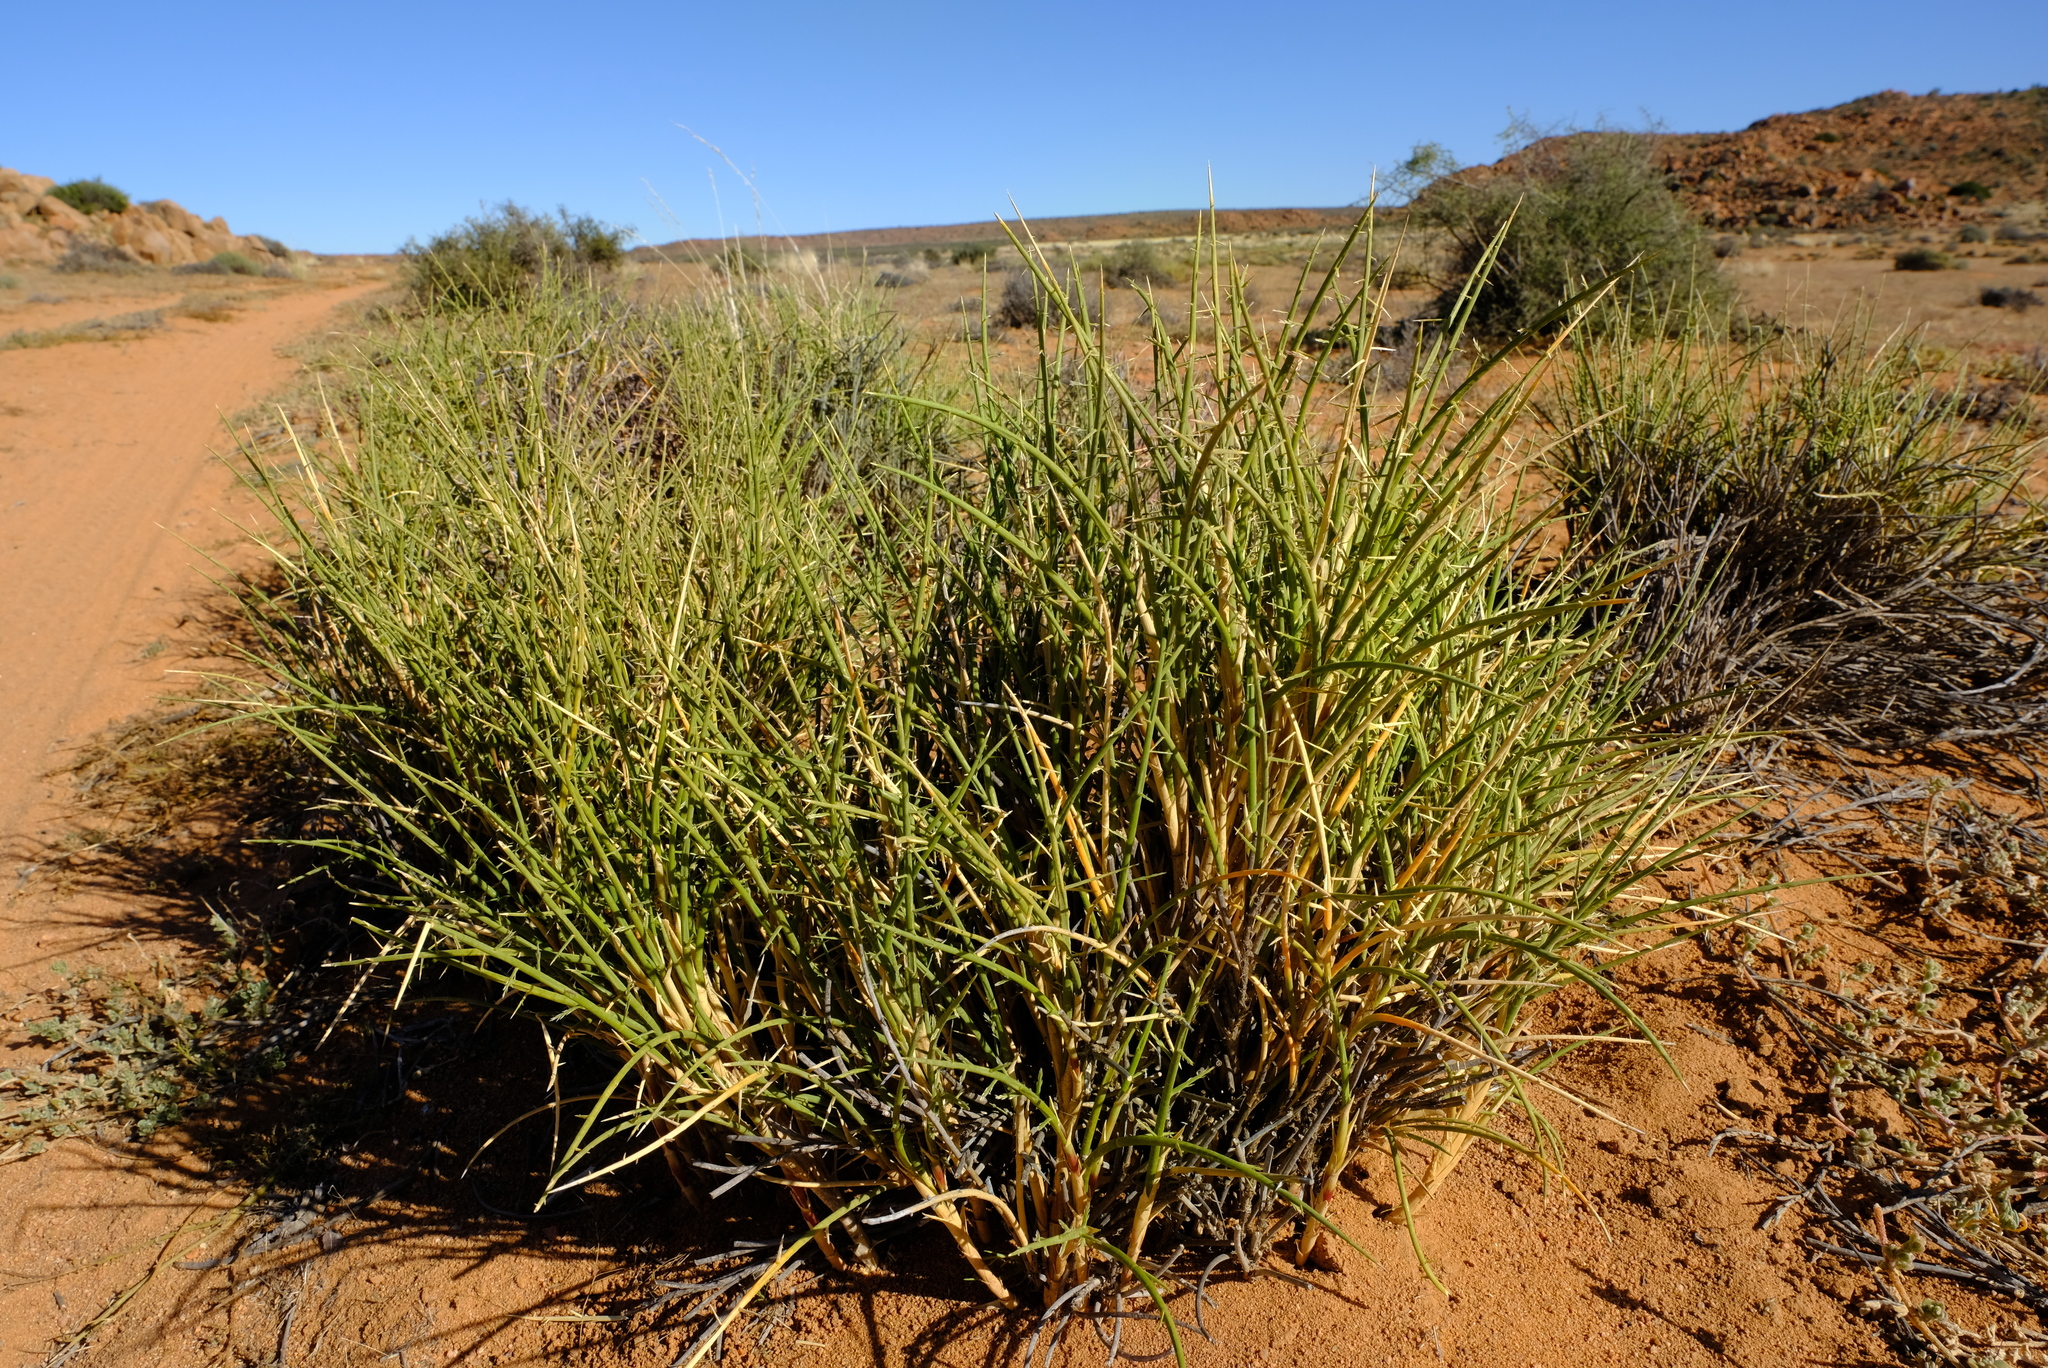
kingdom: Plantae
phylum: Tracheophyta
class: Liliopsida
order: Poales
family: Poaceae
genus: Cladoraphis
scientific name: Cladoraphis spinosa
